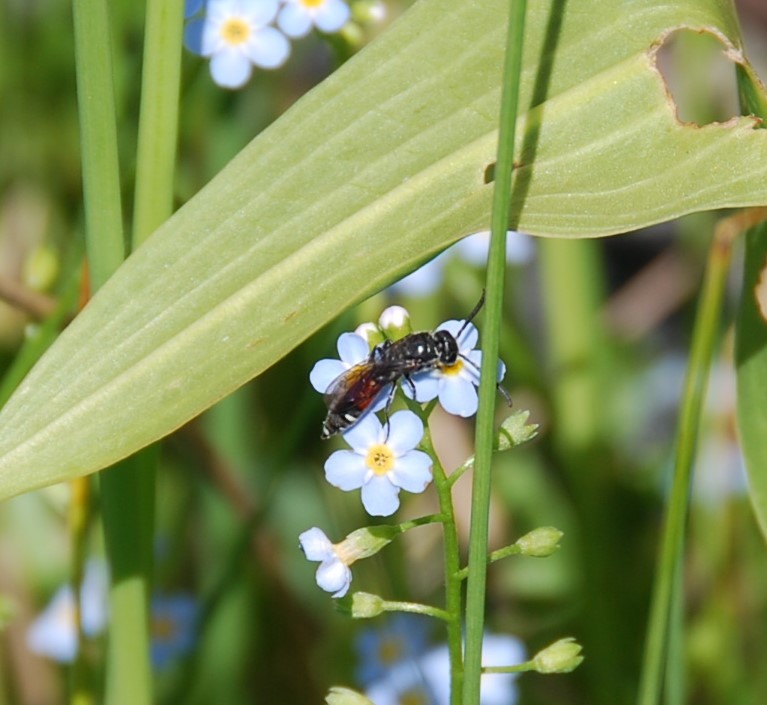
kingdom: Animalia
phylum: Arthropoda
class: Insecta
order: Hymenoptera
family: Sapygidae
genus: Sapyga
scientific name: Sapyga quinquepunctata
